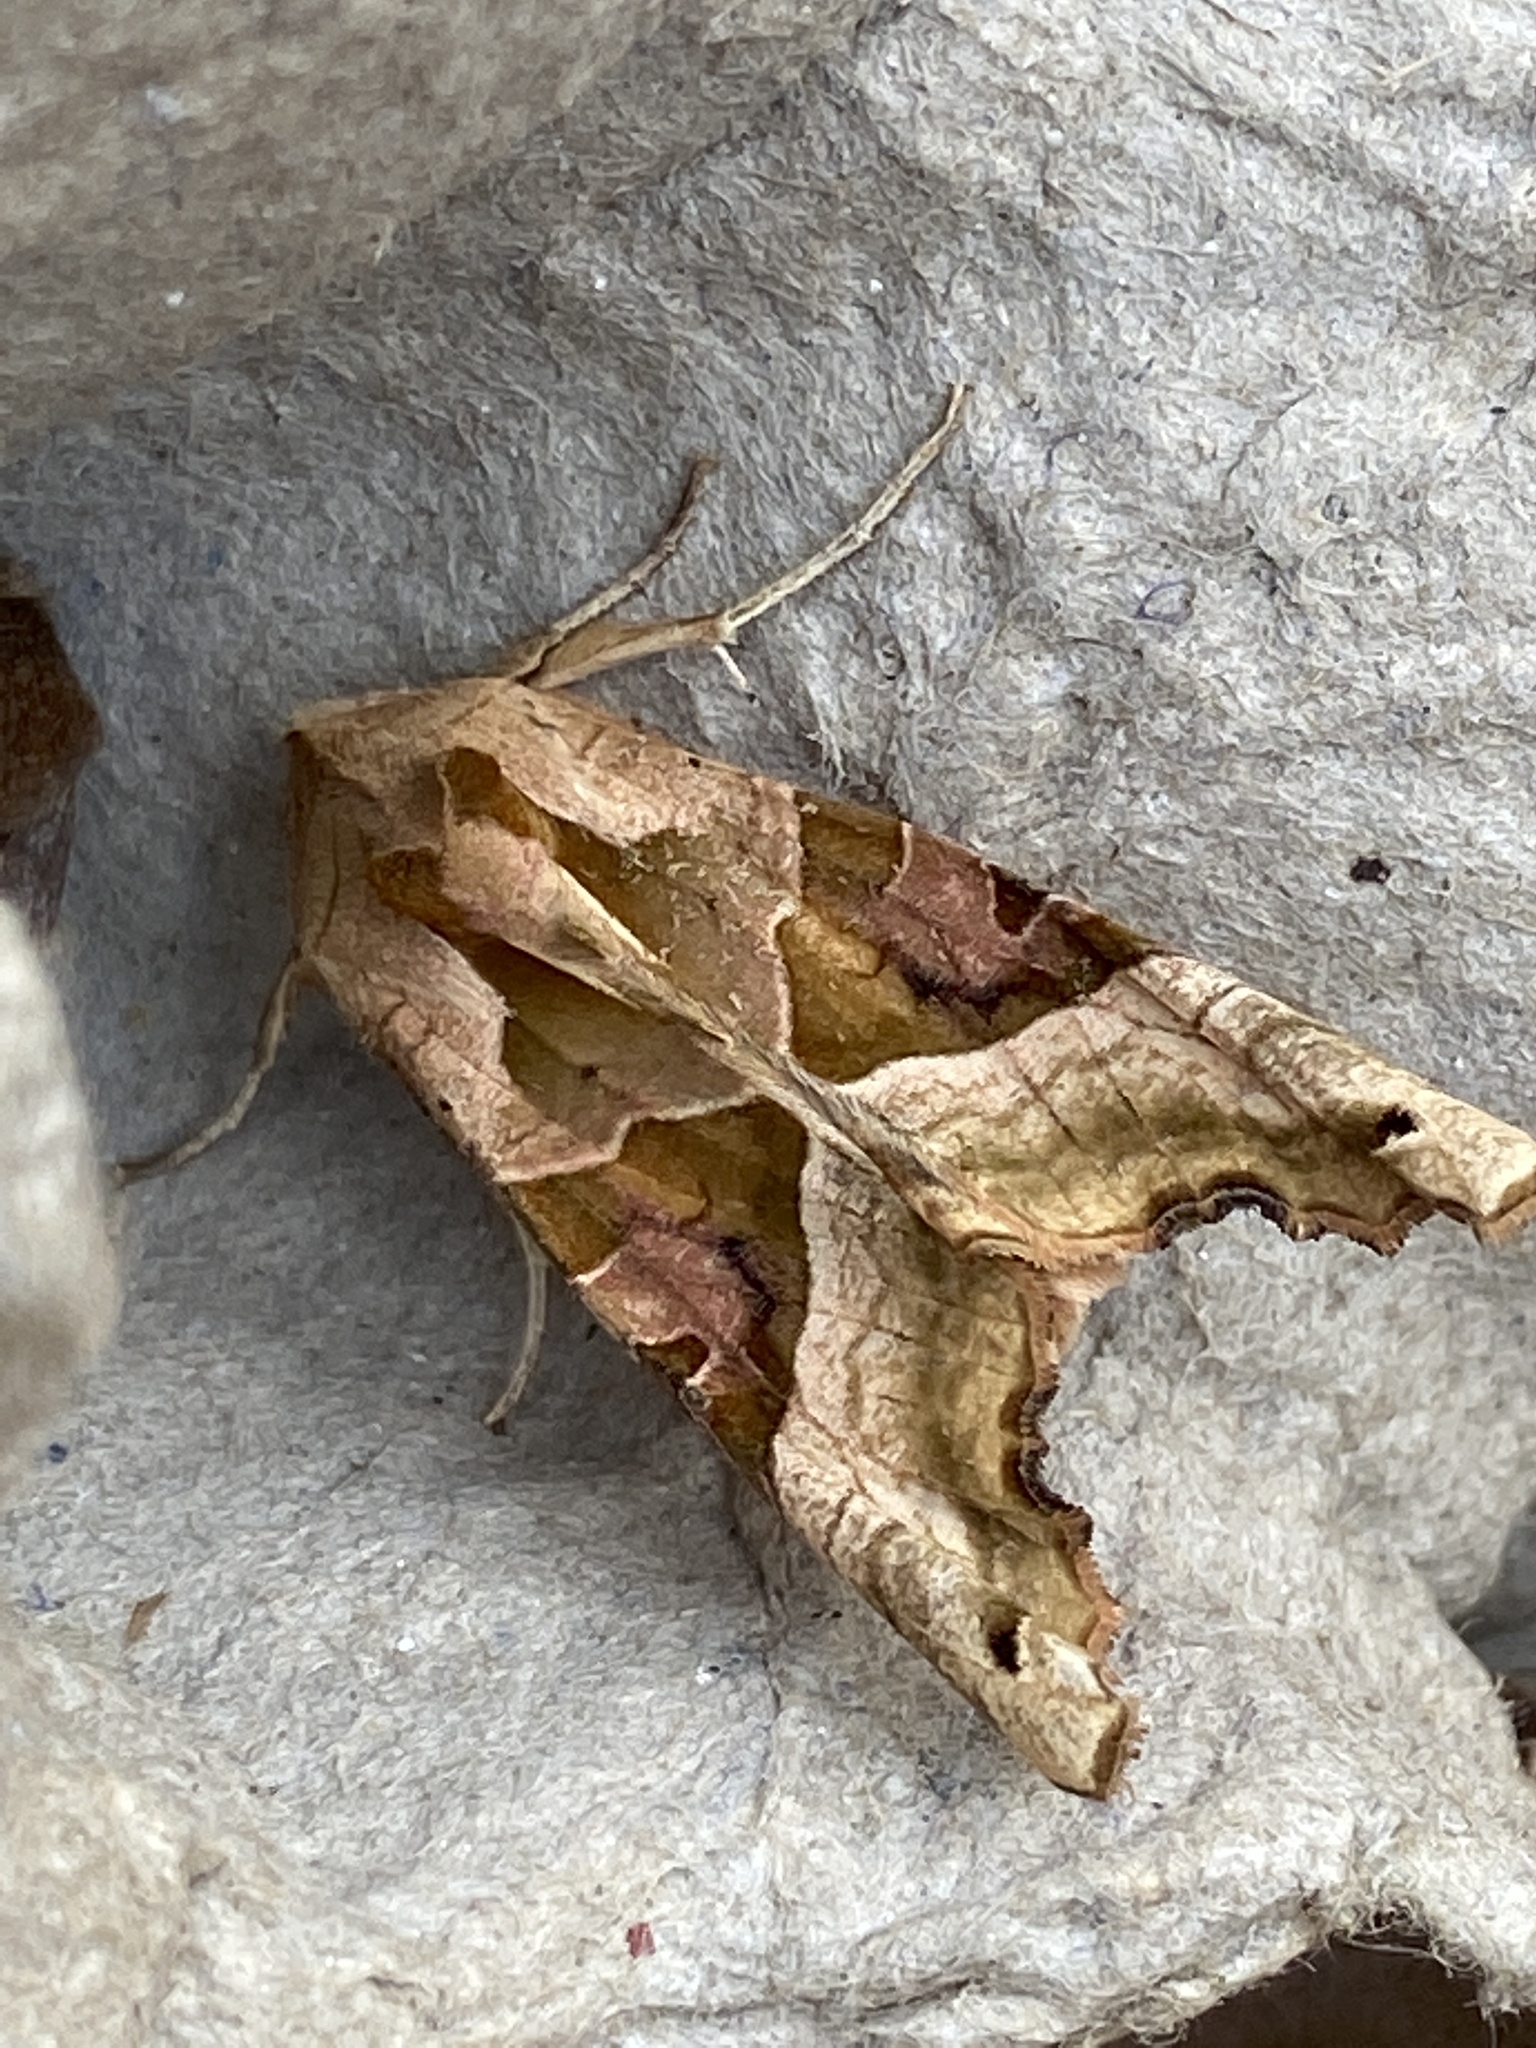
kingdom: Animalia
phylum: Arthropoda
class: Insecta
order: Lepidoptera
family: Noctuidae
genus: Phlogophora
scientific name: Phlogophora meticulosa
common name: Angle shades
